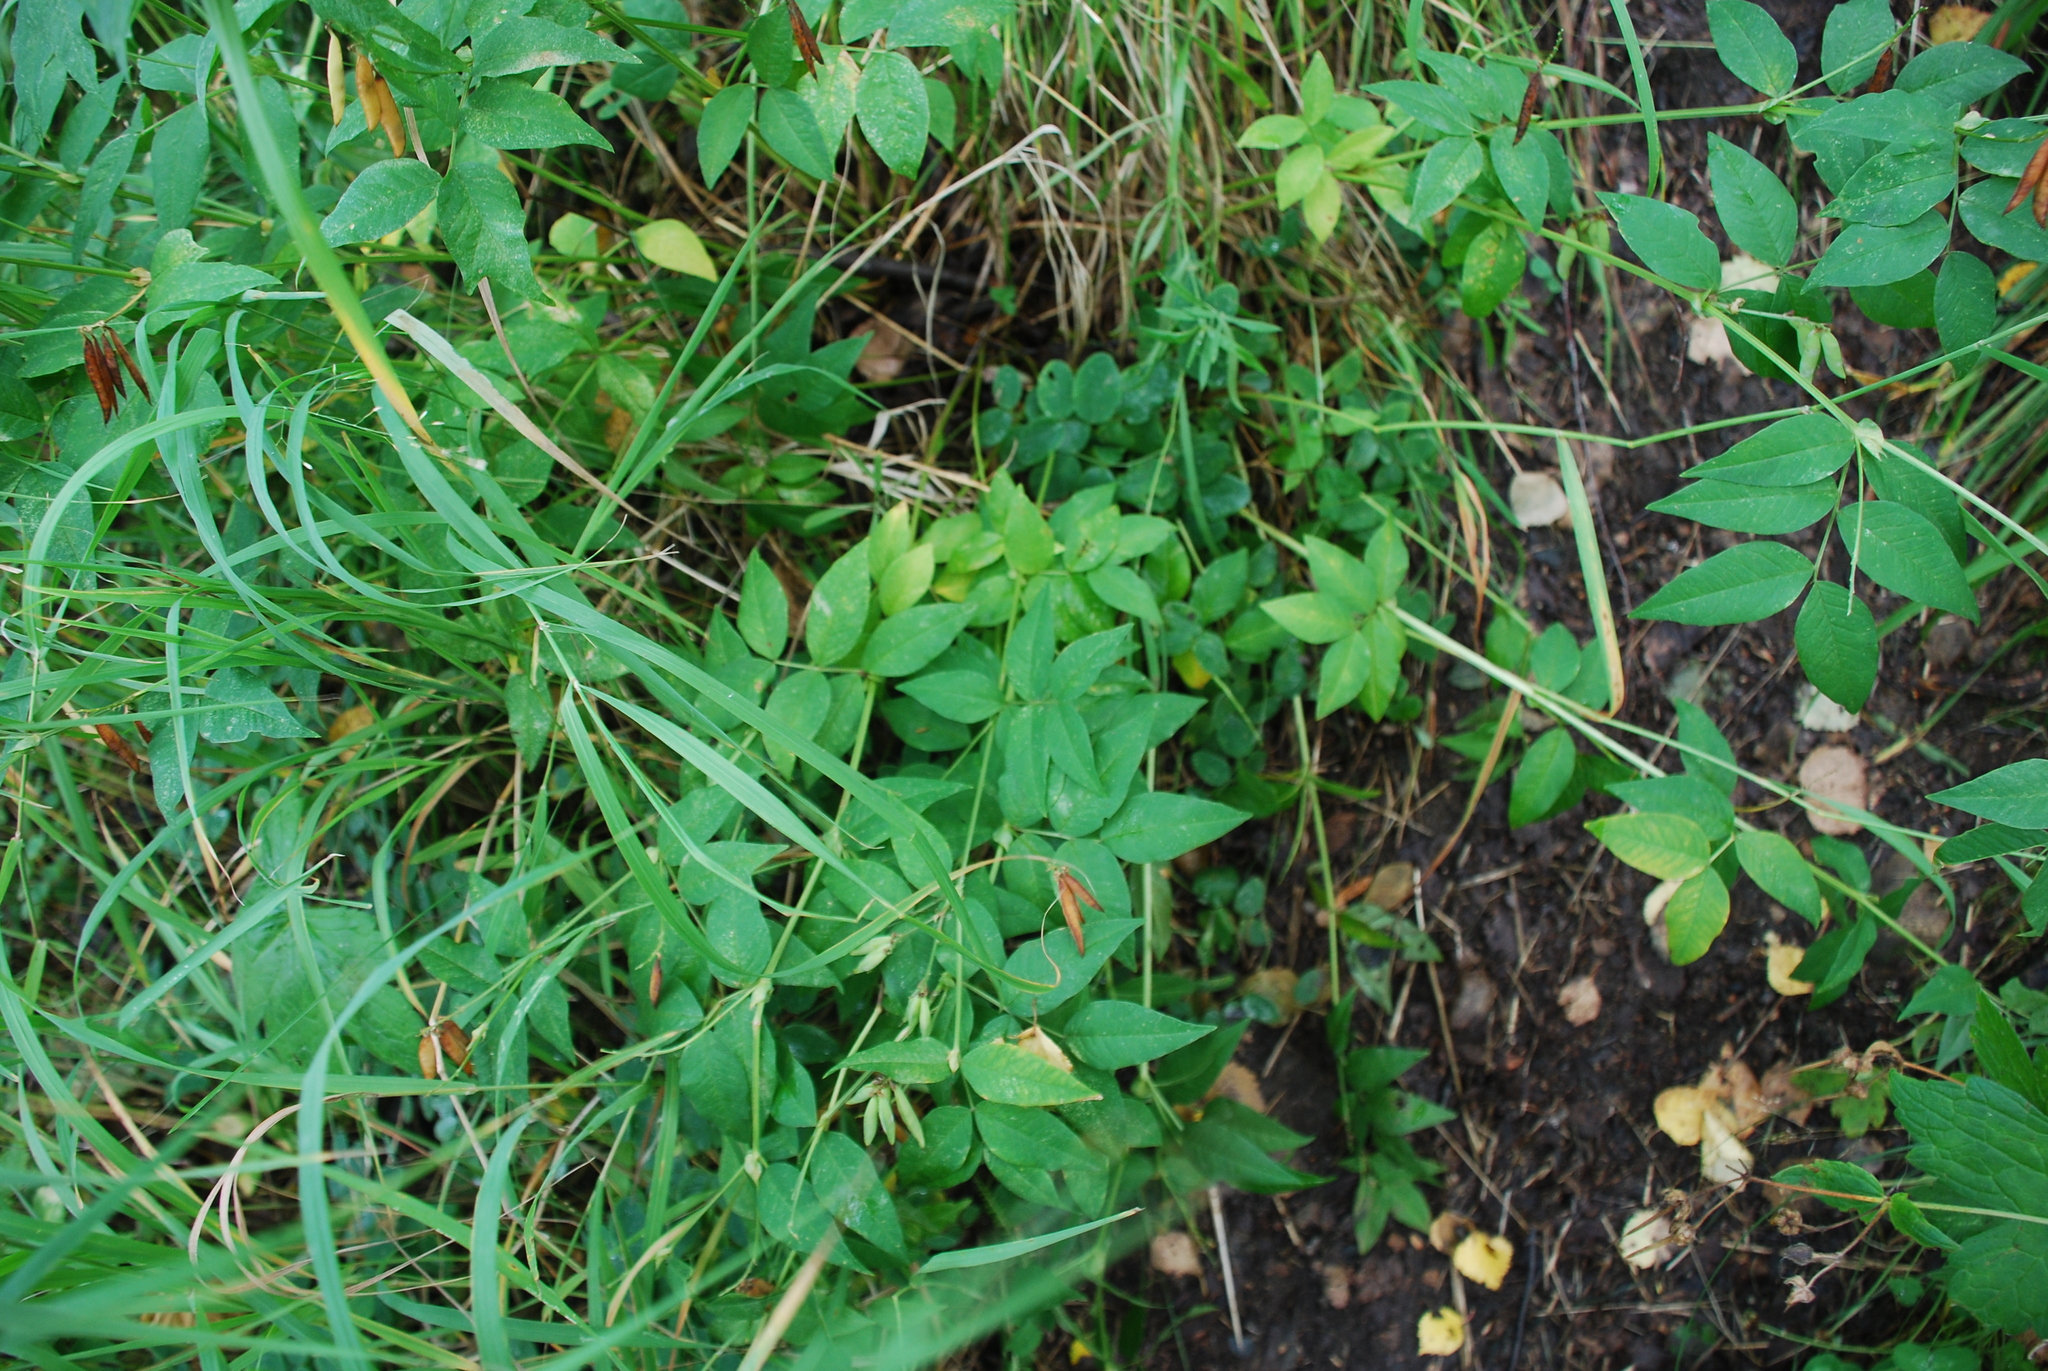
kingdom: Plantae
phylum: Tracheophyta
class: Magnoliopsida
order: Fabales
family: Fabaceae
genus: Vicia
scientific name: Vicia ramuliflora
